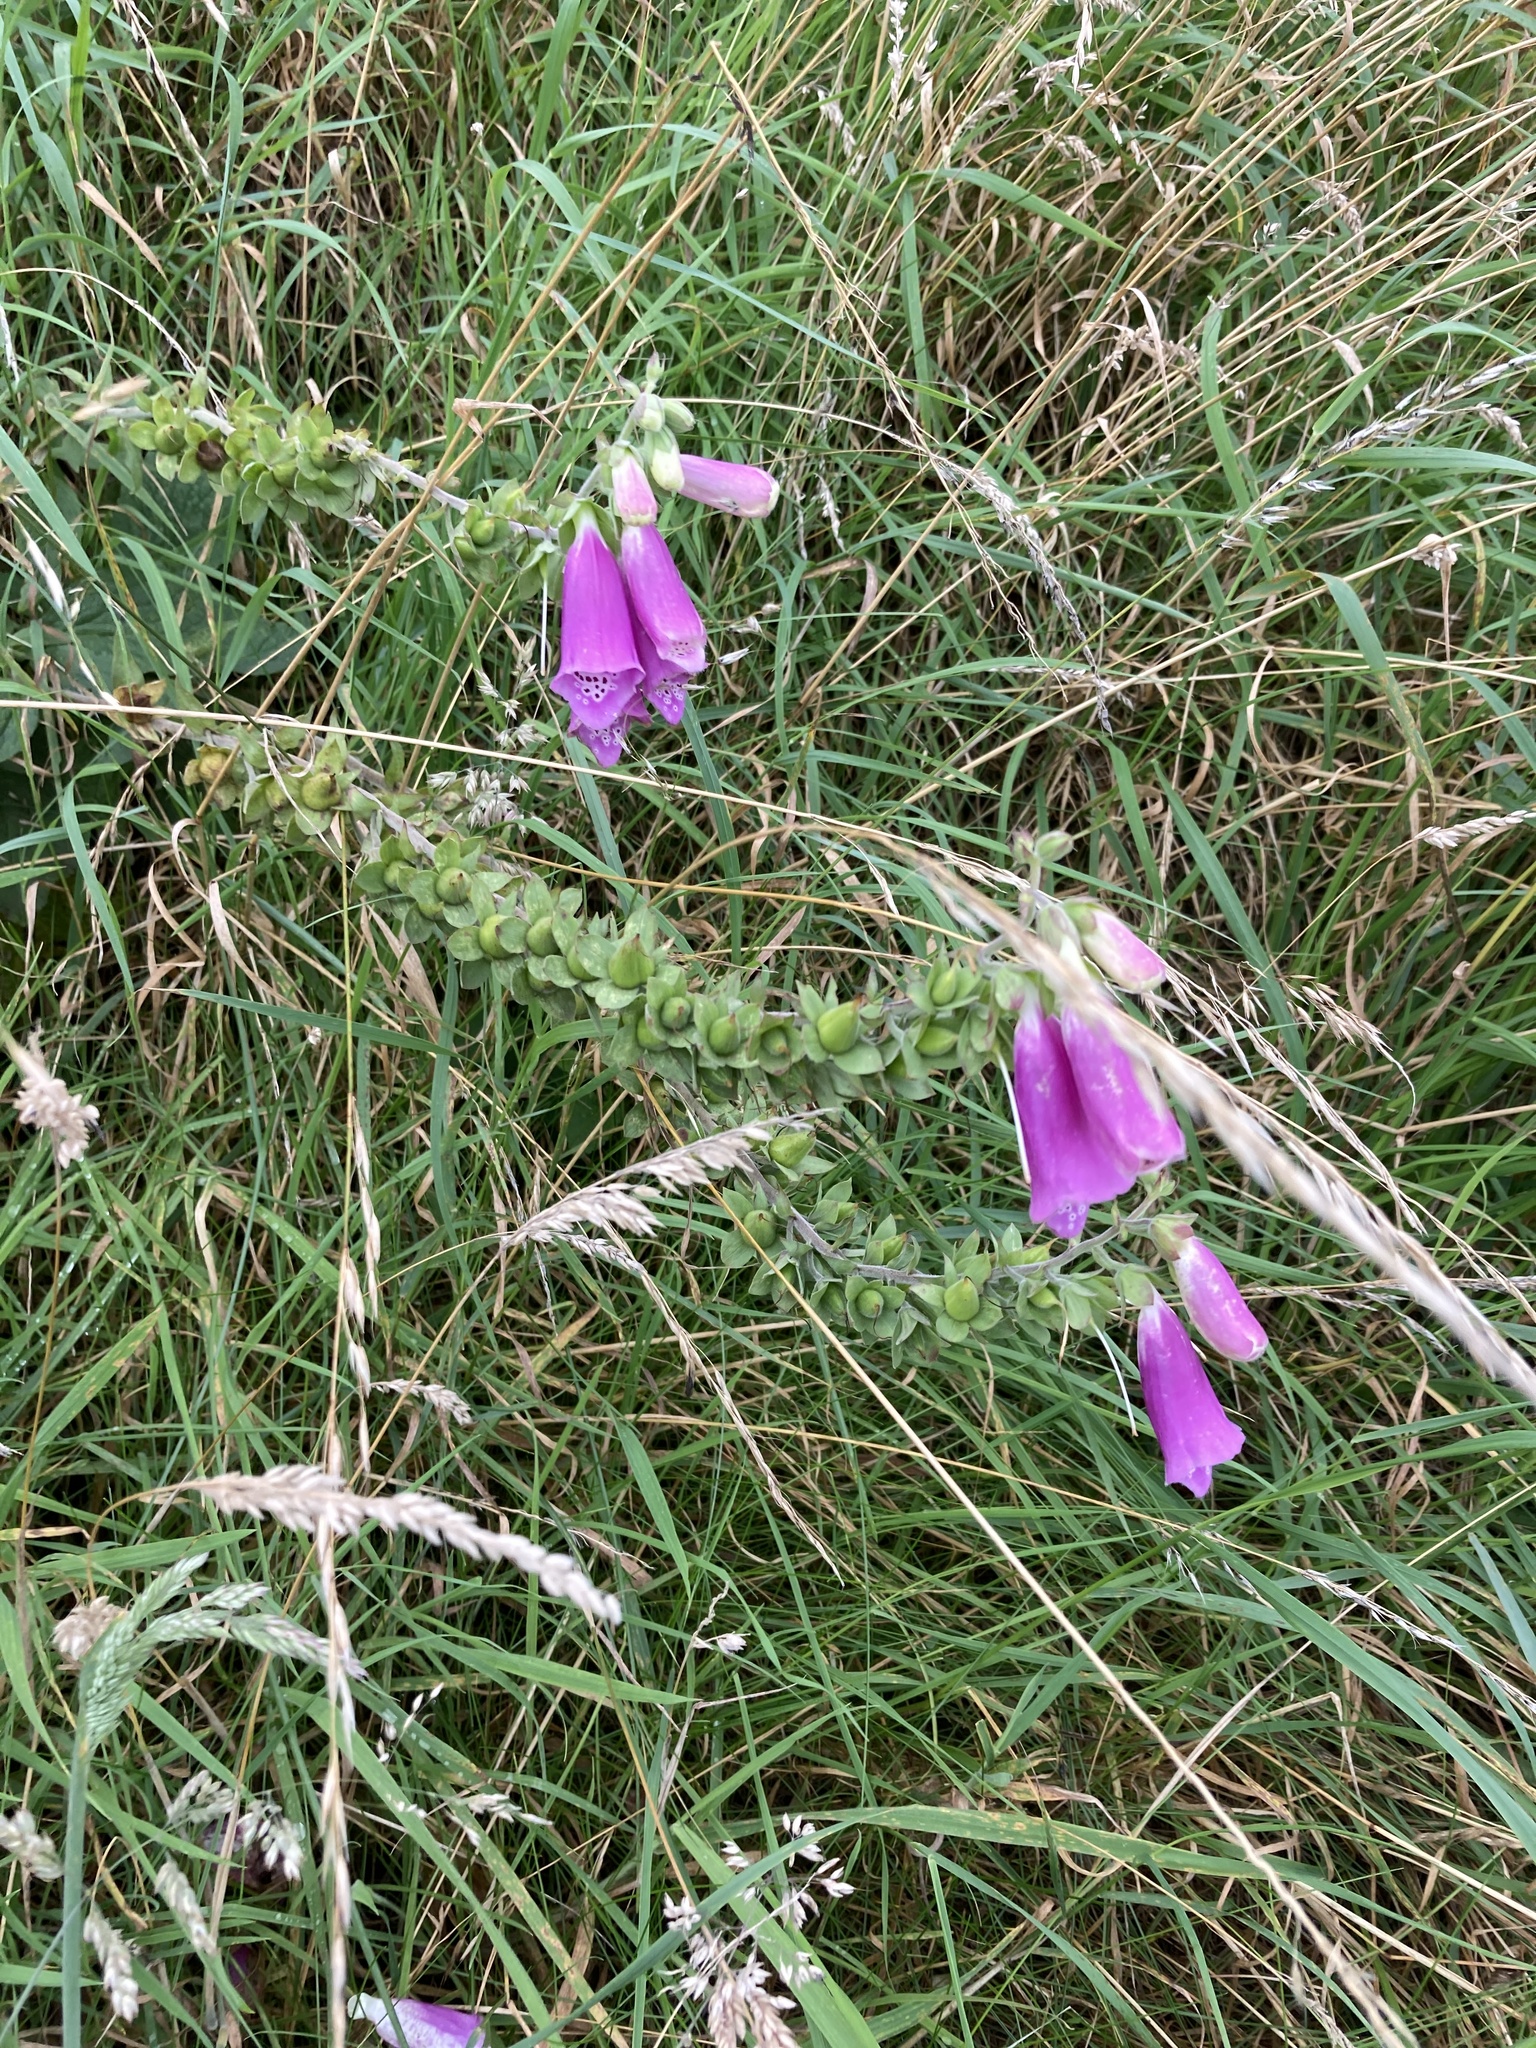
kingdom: Plantae
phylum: Tracheophyta
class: Magnoliopsida
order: Lamiales
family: Plantaginaceae
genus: Digitalis
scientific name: Digitalis purpurea
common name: Foxglove
